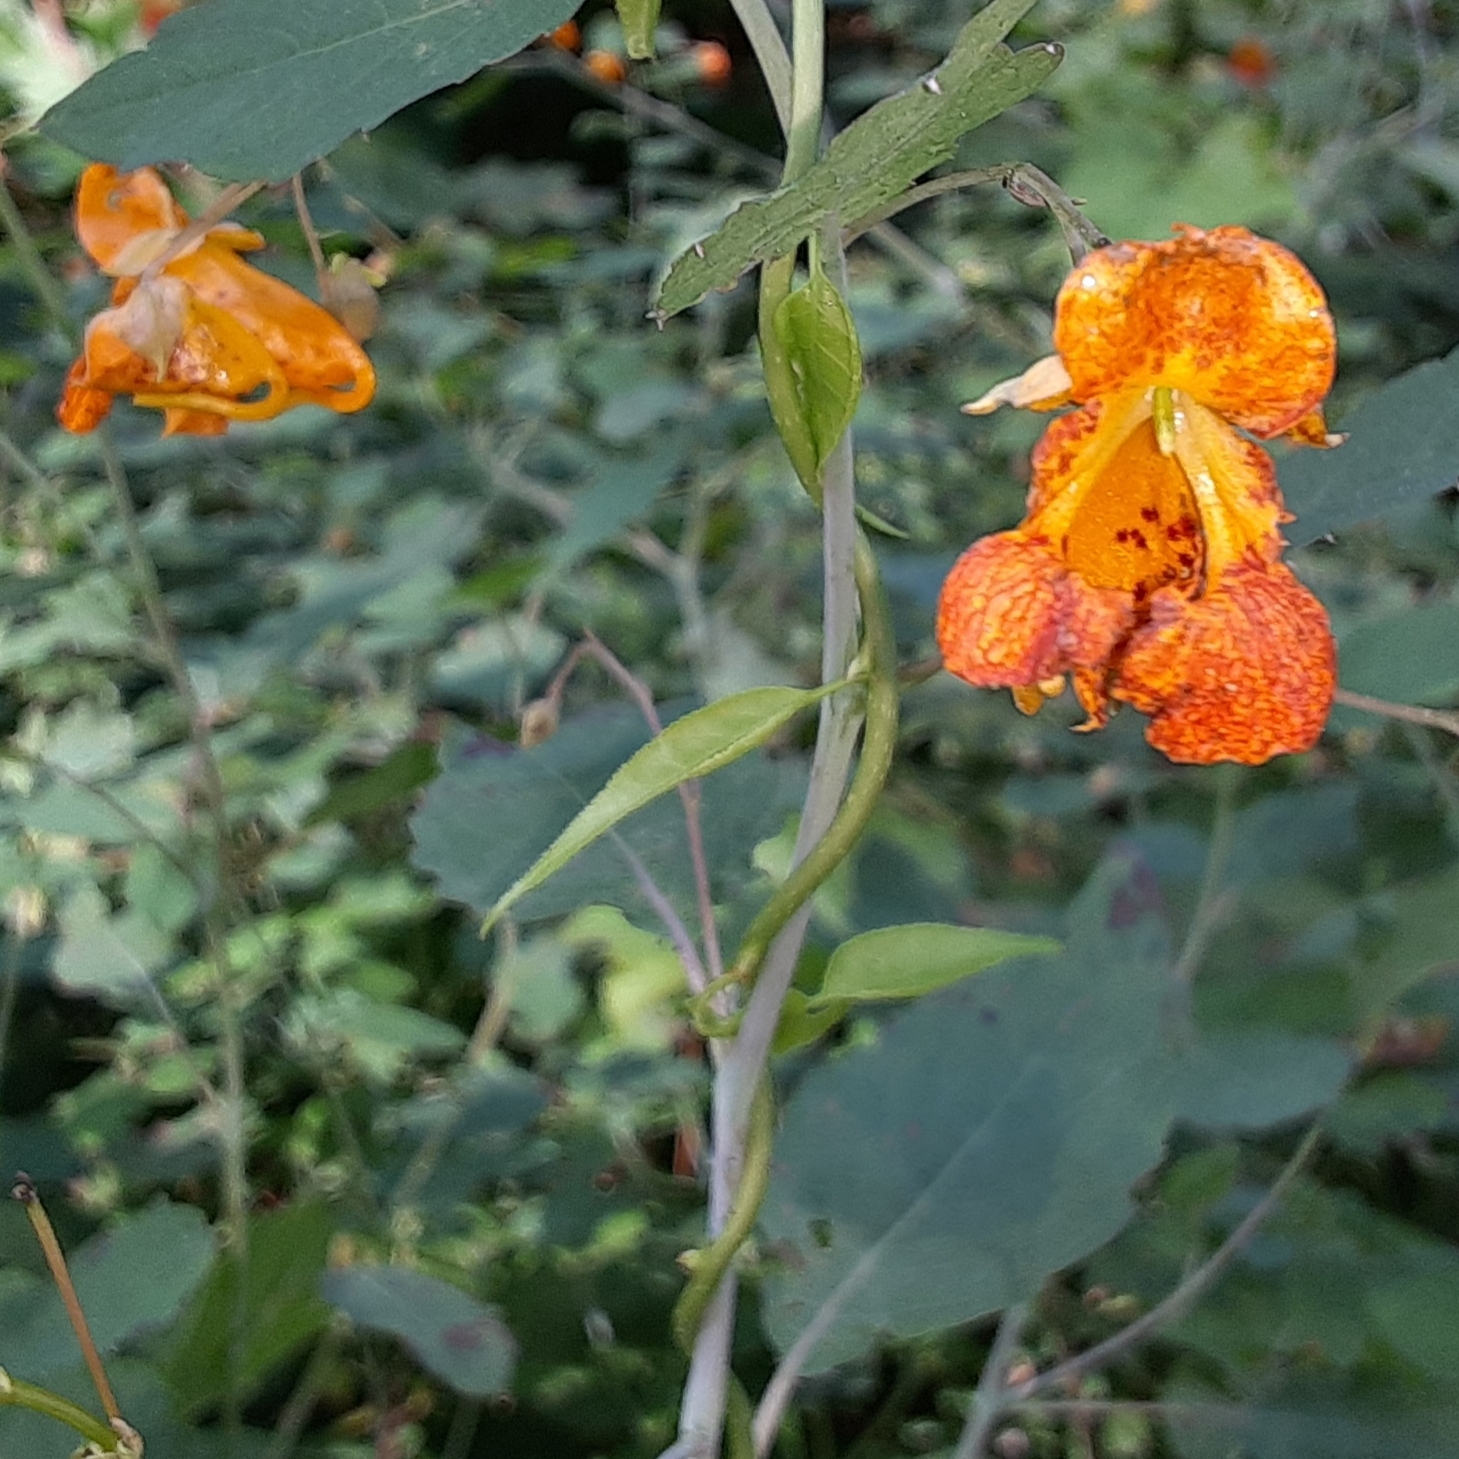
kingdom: Plantae
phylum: Tracheophyta
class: Magnoliopsida
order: Ericales
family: Balsaminaceae
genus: Impatiens
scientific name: Impatiens capensis
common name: Orange balsam
